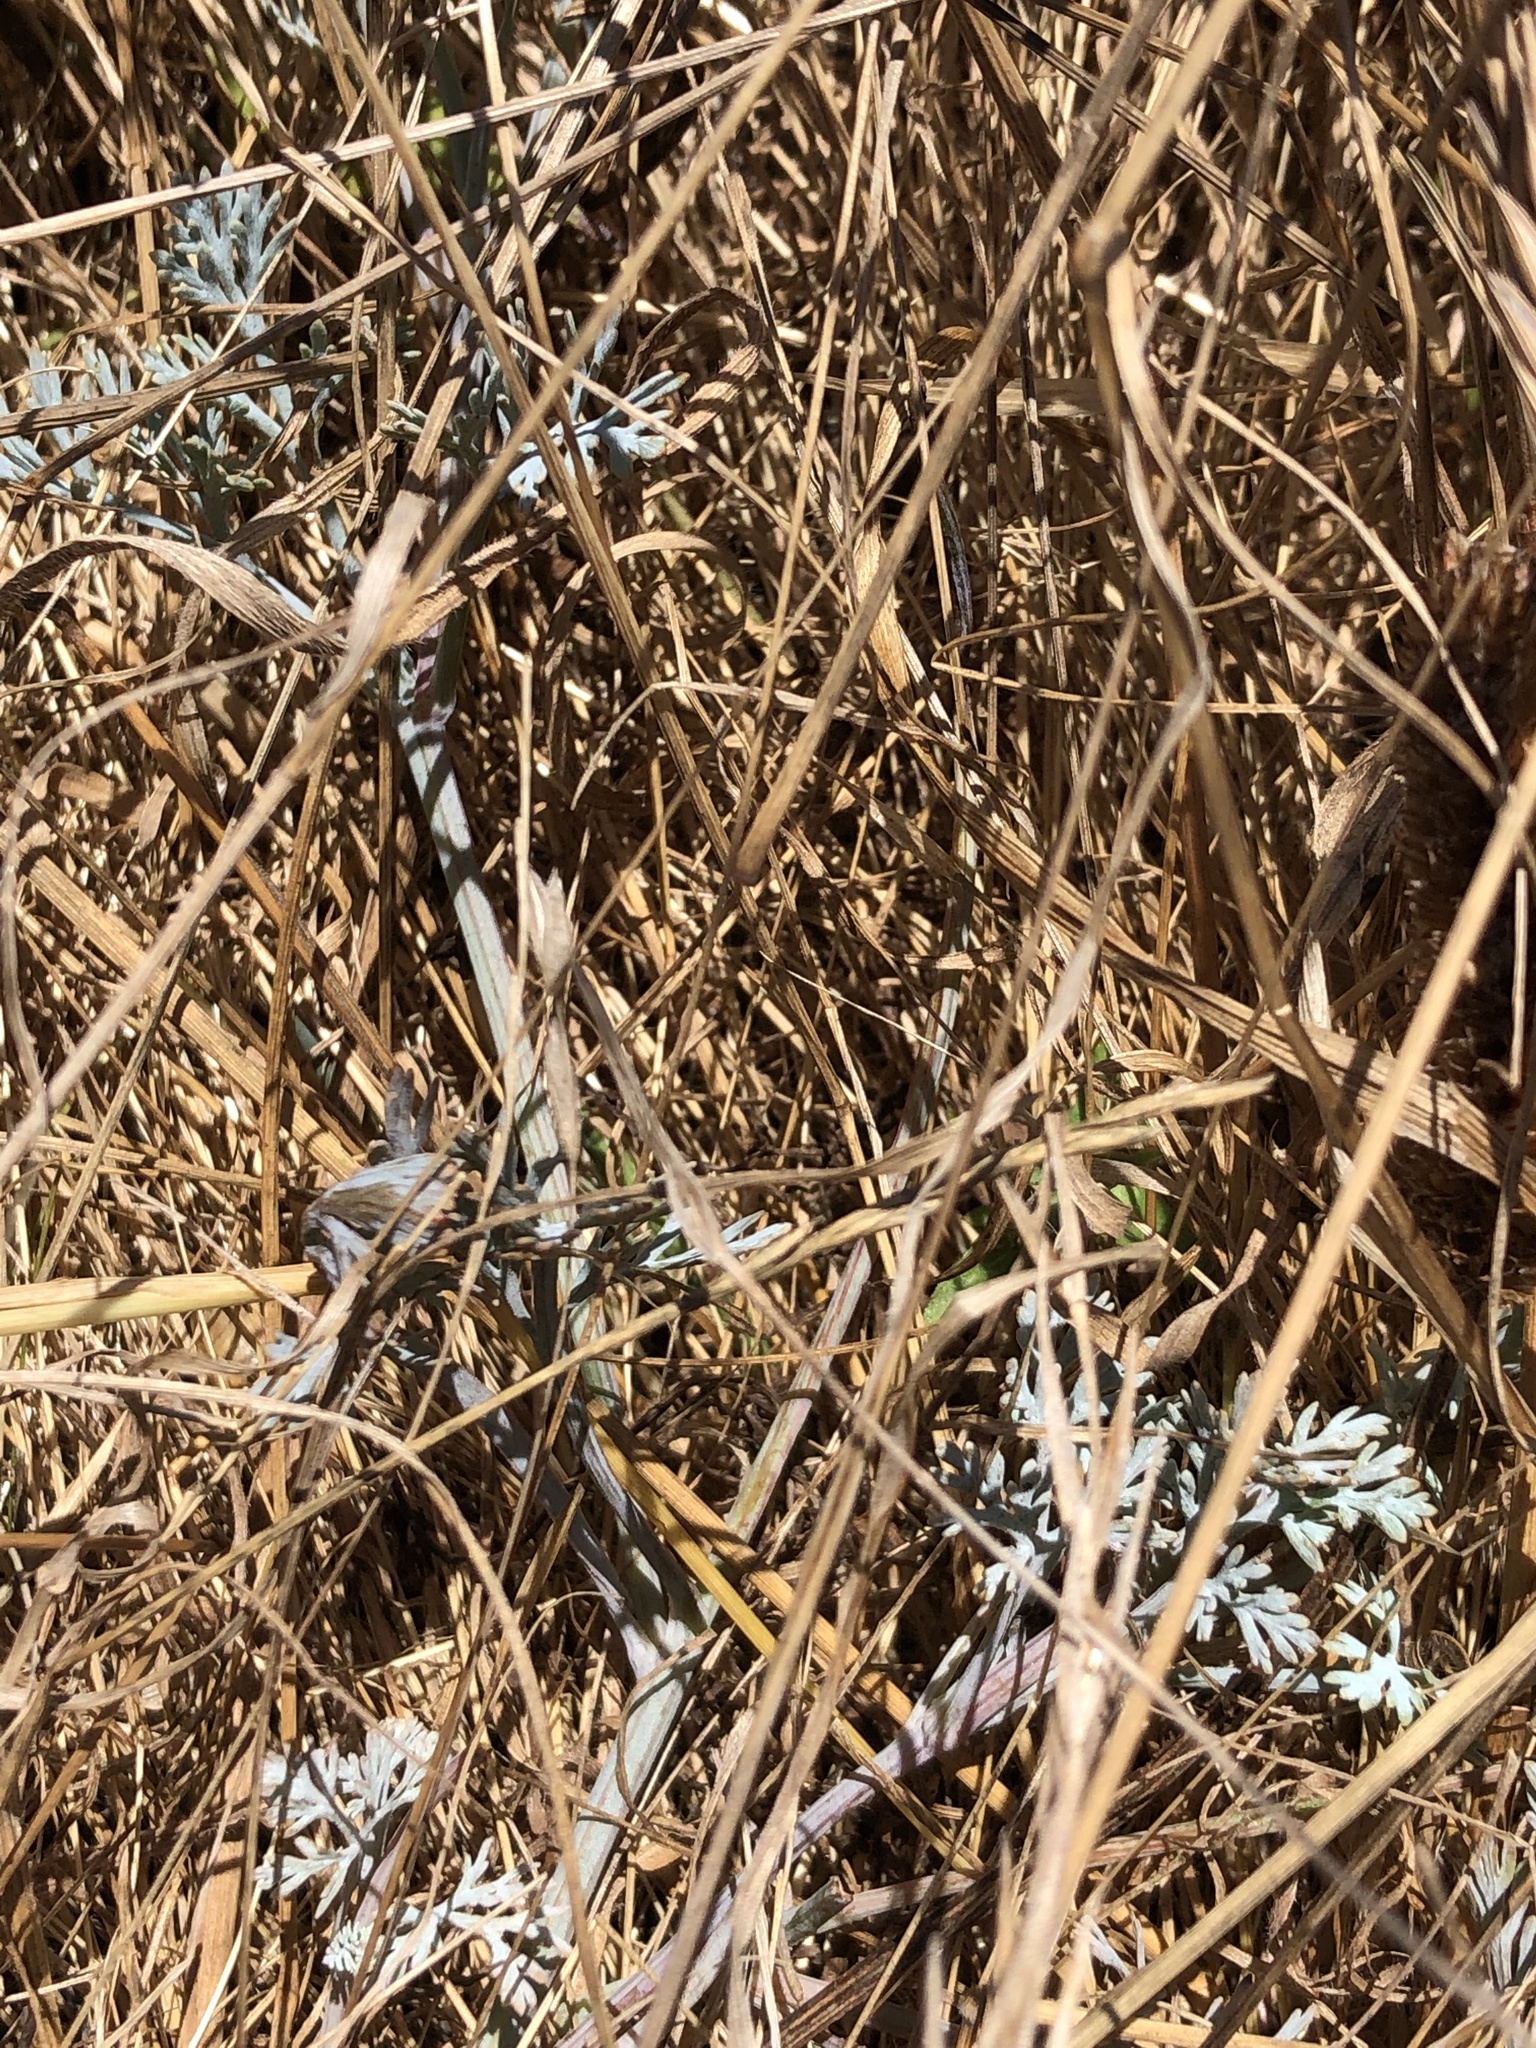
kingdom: Plantae
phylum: Tracheophyta
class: Magnoliopsida
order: Ranunculales
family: Papaveraceae
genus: Eschscholzia
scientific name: Eschscholzia californica
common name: California poppy
